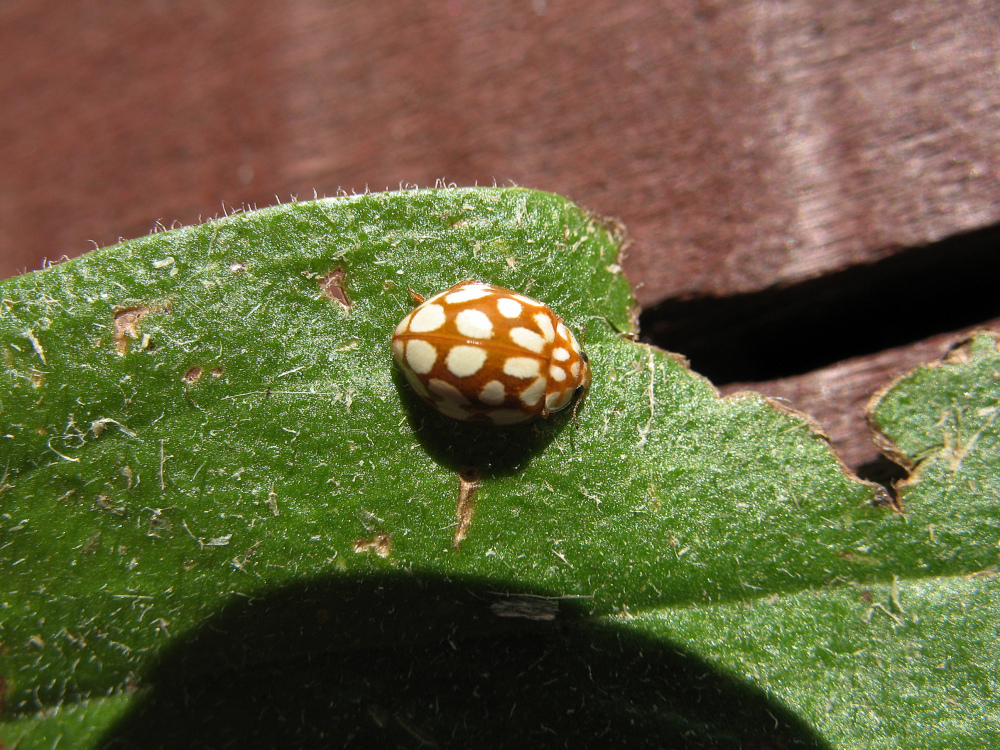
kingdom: Animalia
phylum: Arthropoda
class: Insecta
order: Coleoptera
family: Coccinellidae
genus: Sospita
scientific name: Sospita vigintiguttata
